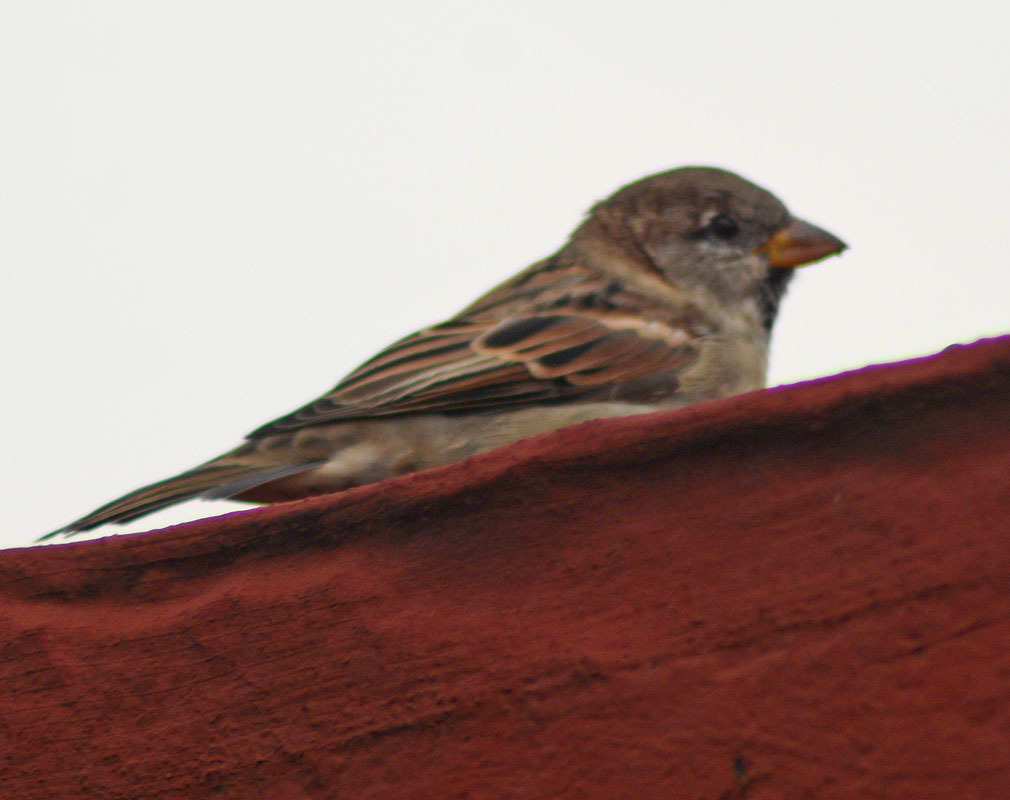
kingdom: Animalia
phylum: Chordata
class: Aves
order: Passeriformes
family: Passeridae
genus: Passer
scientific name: Passer domesticus
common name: House sparrow
